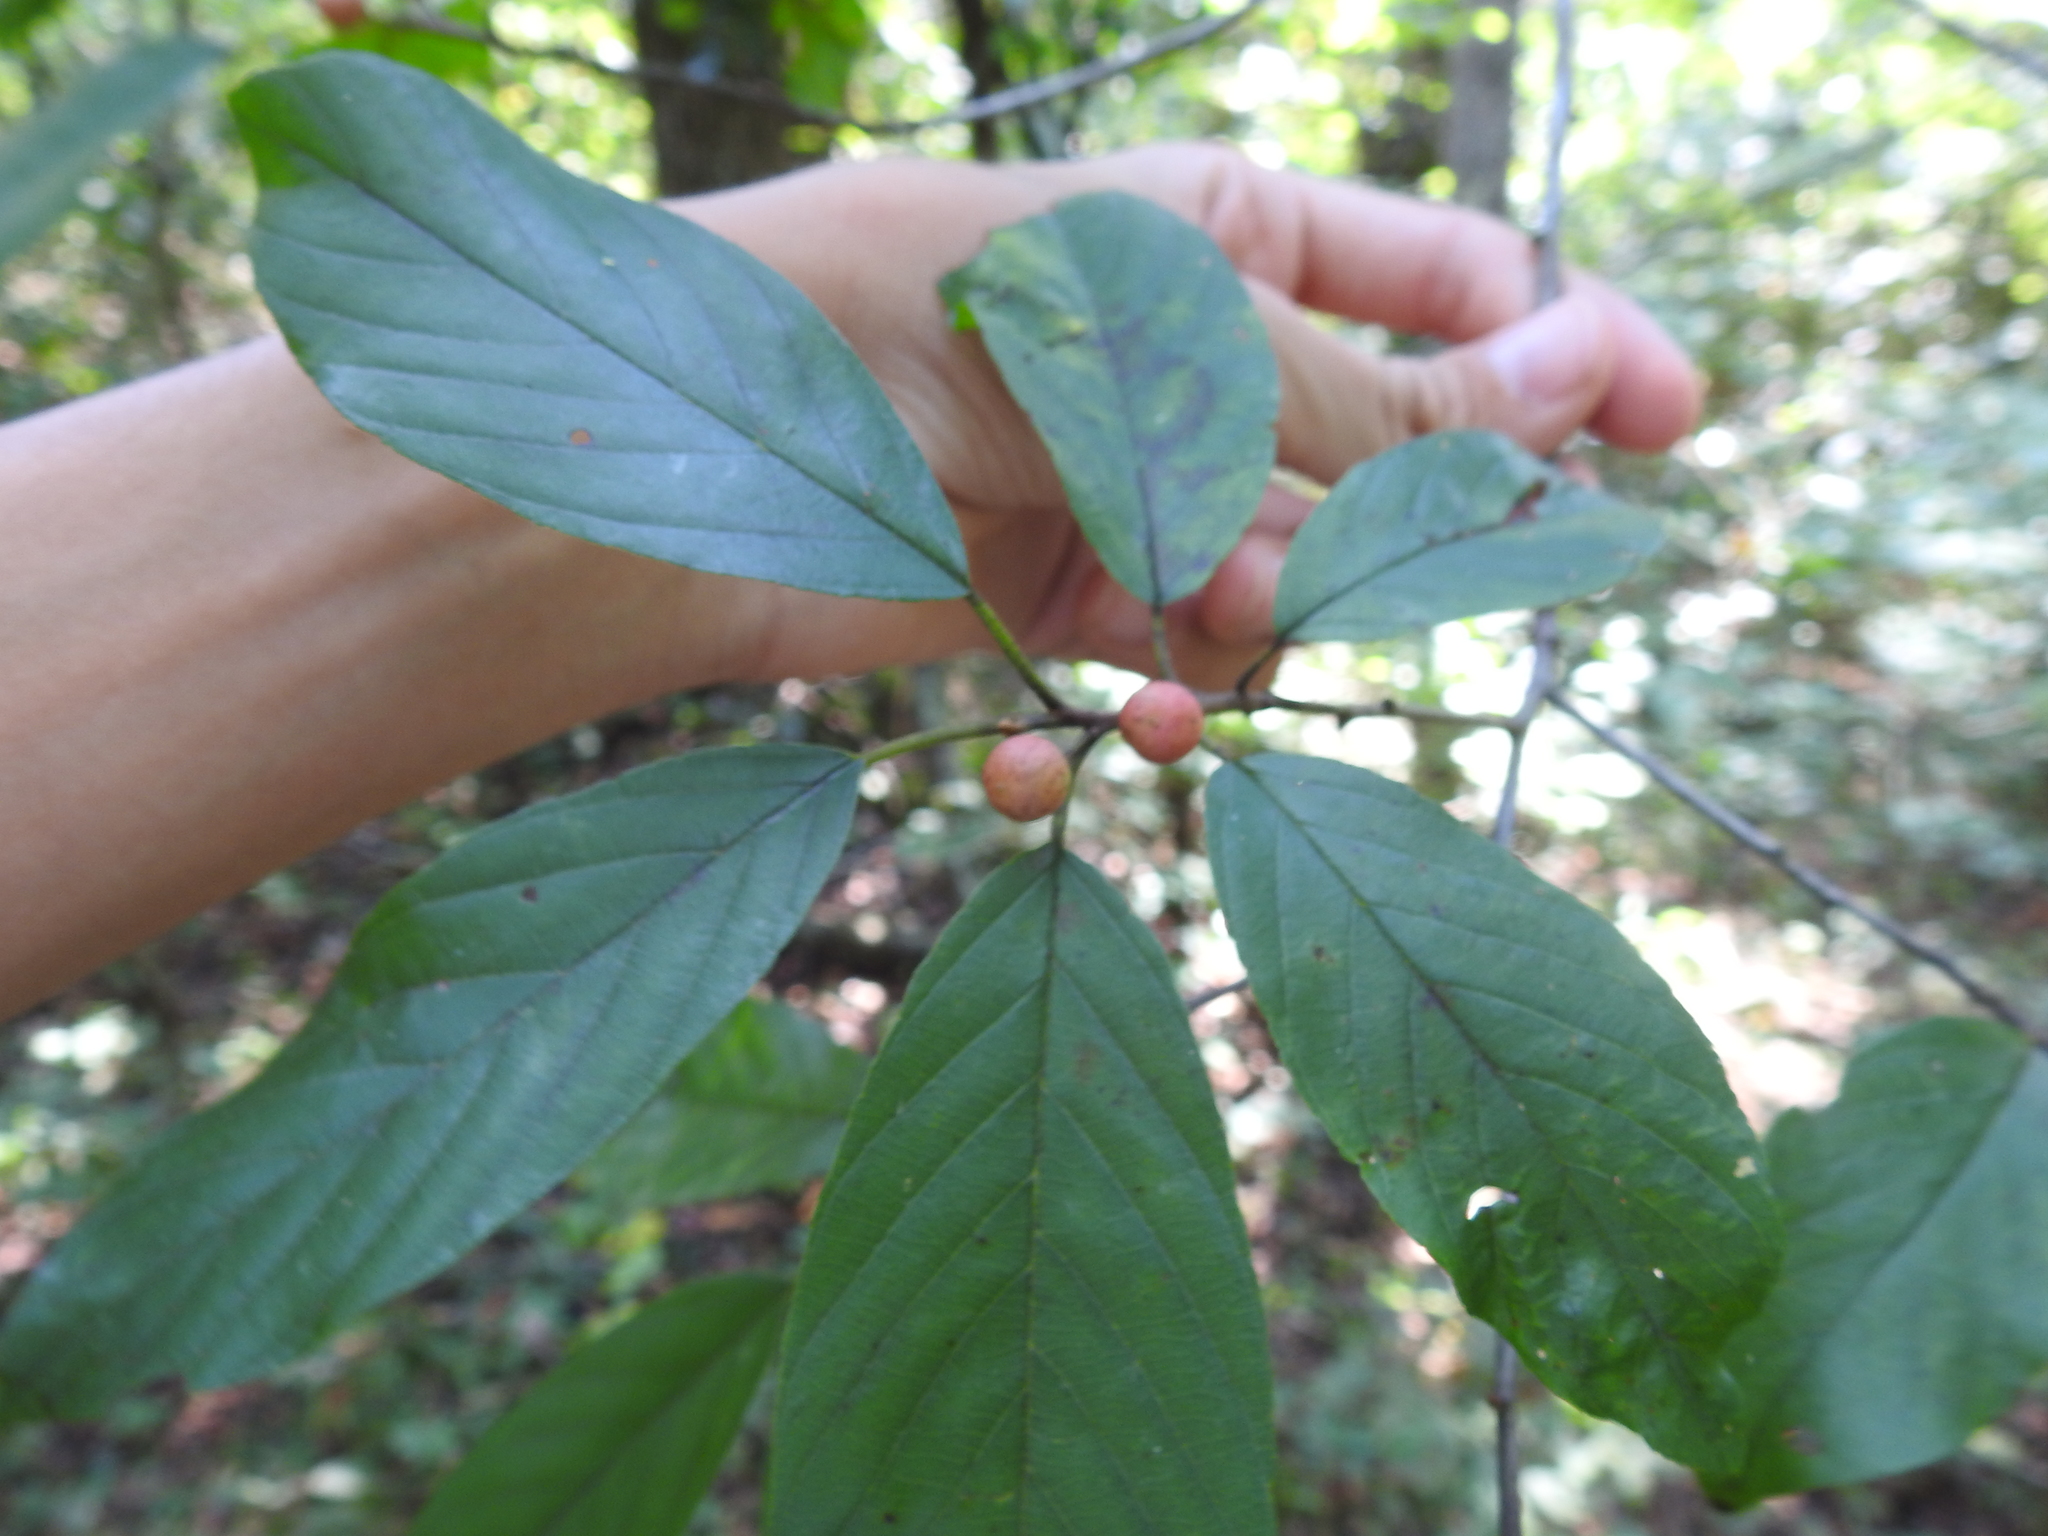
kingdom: Plantae
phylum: Tracheophyta
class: Magnoliopsida
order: Rosales
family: Rhamnaceae
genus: Frangula
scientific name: Frangula caroliniana
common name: Carolina buckthorn
